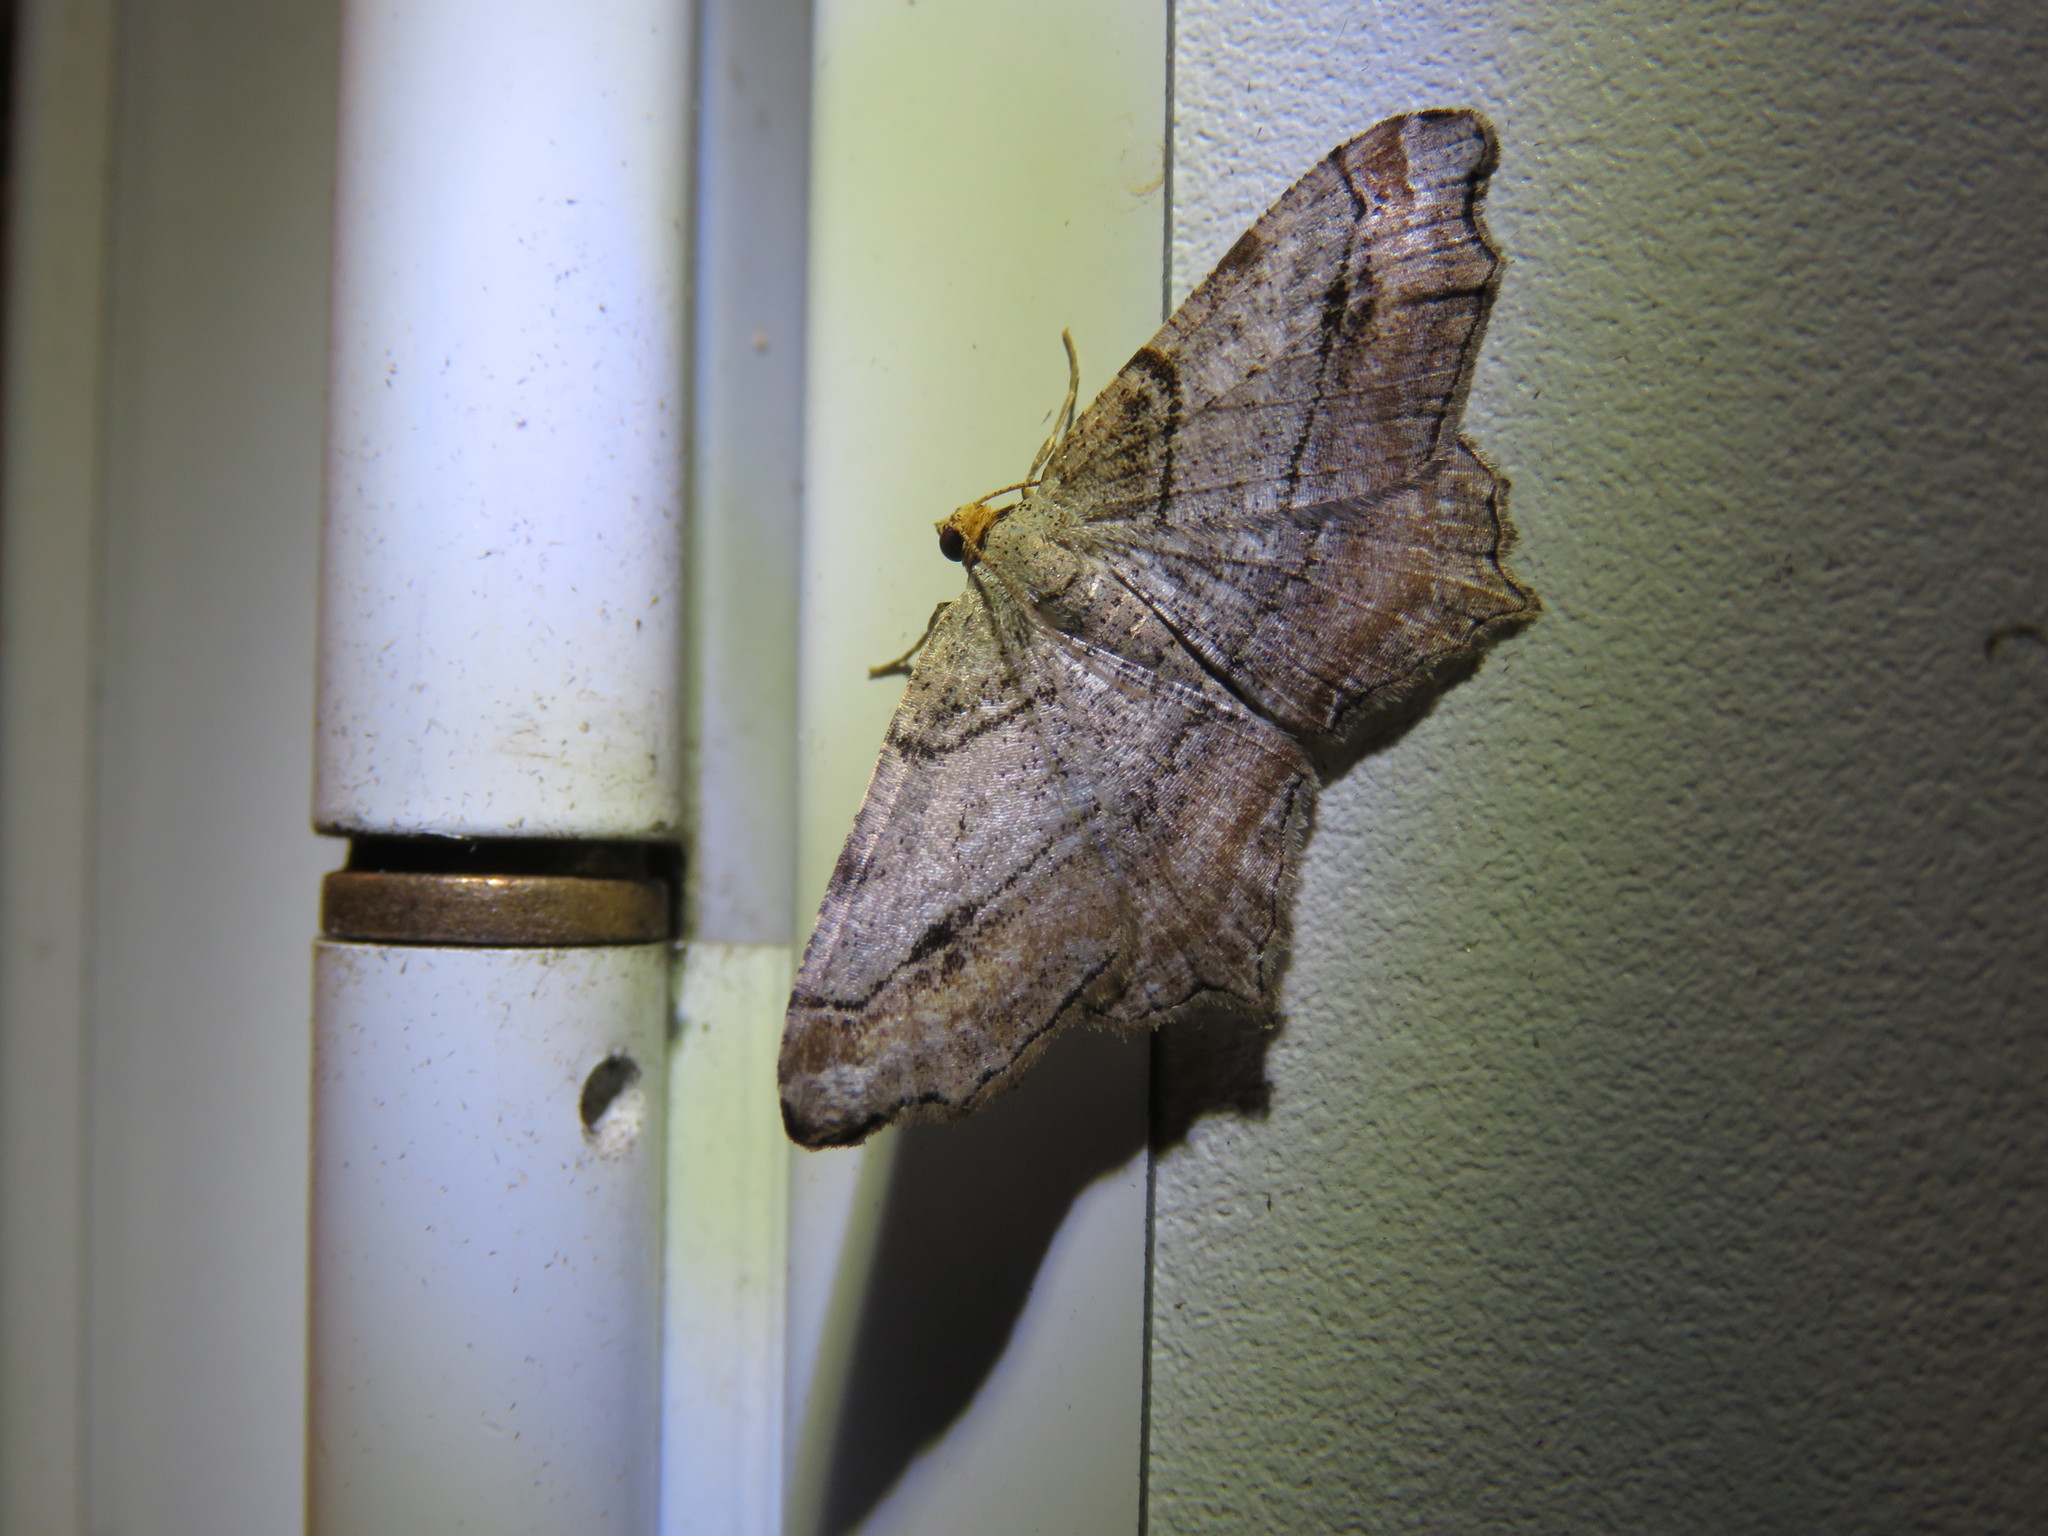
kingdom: Animalia
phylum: Arthropoda
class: Insecta
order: Lepidoptera
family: Geometridae
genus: Macaria
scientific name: Macaria multilineata
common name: Many-lined angle
